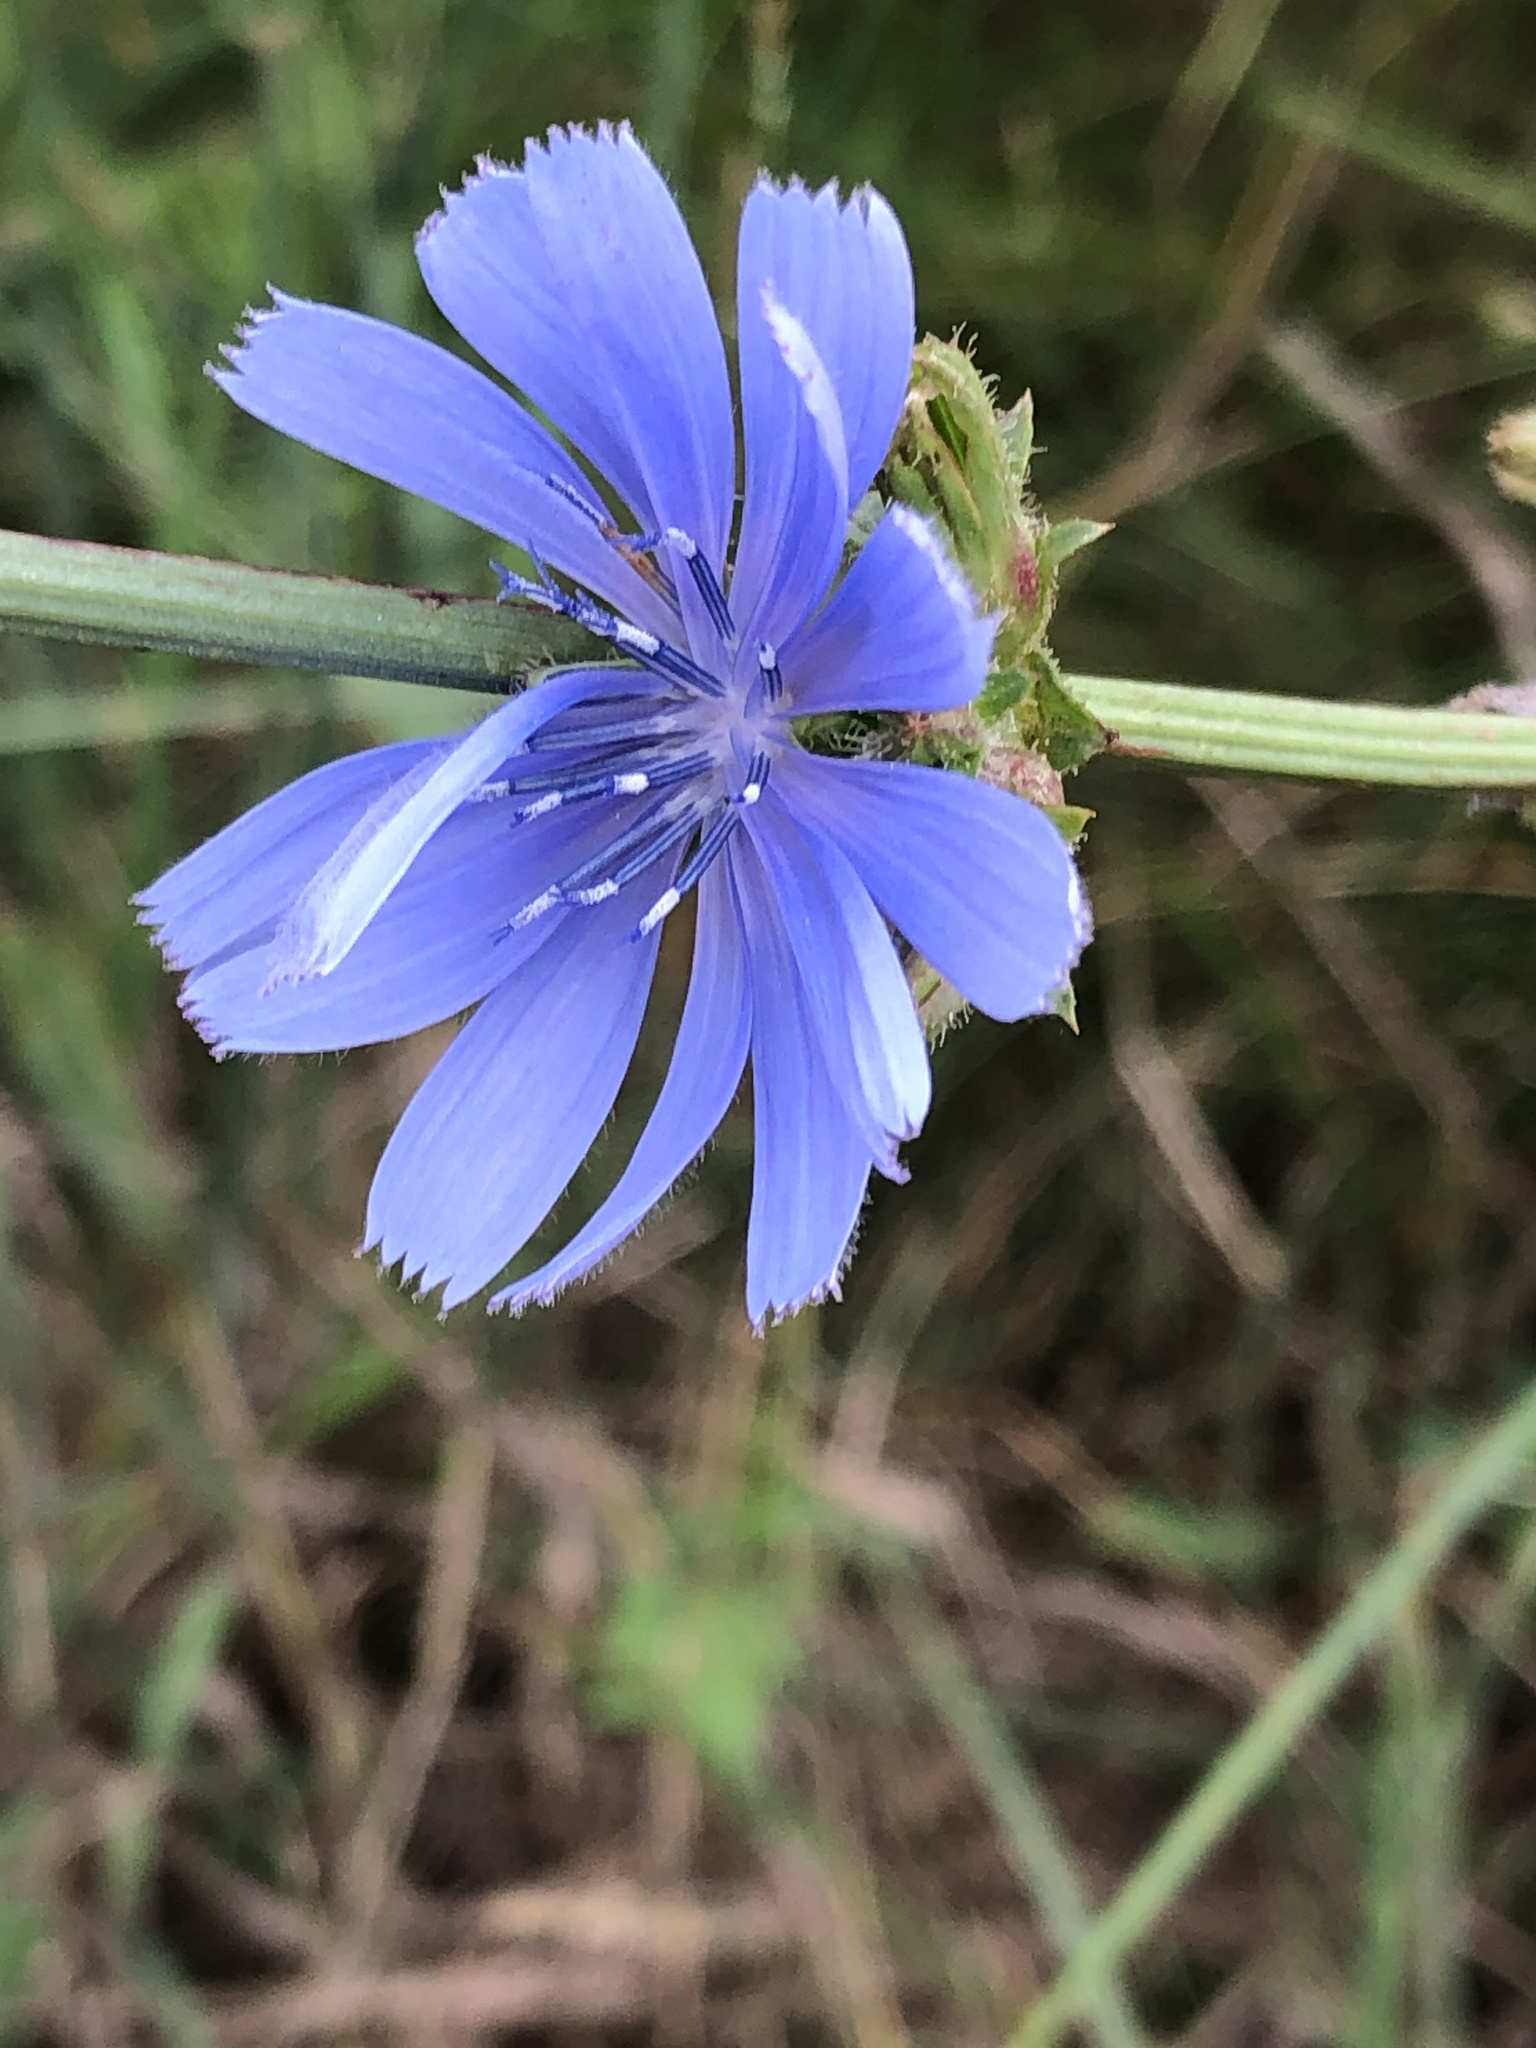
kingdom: Plantae
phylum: Tracheophyta
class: Magnoliopsida
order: Asterales
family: Asteraceae
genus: Cichorium
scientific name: Cichorium intybus
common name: Chicory
